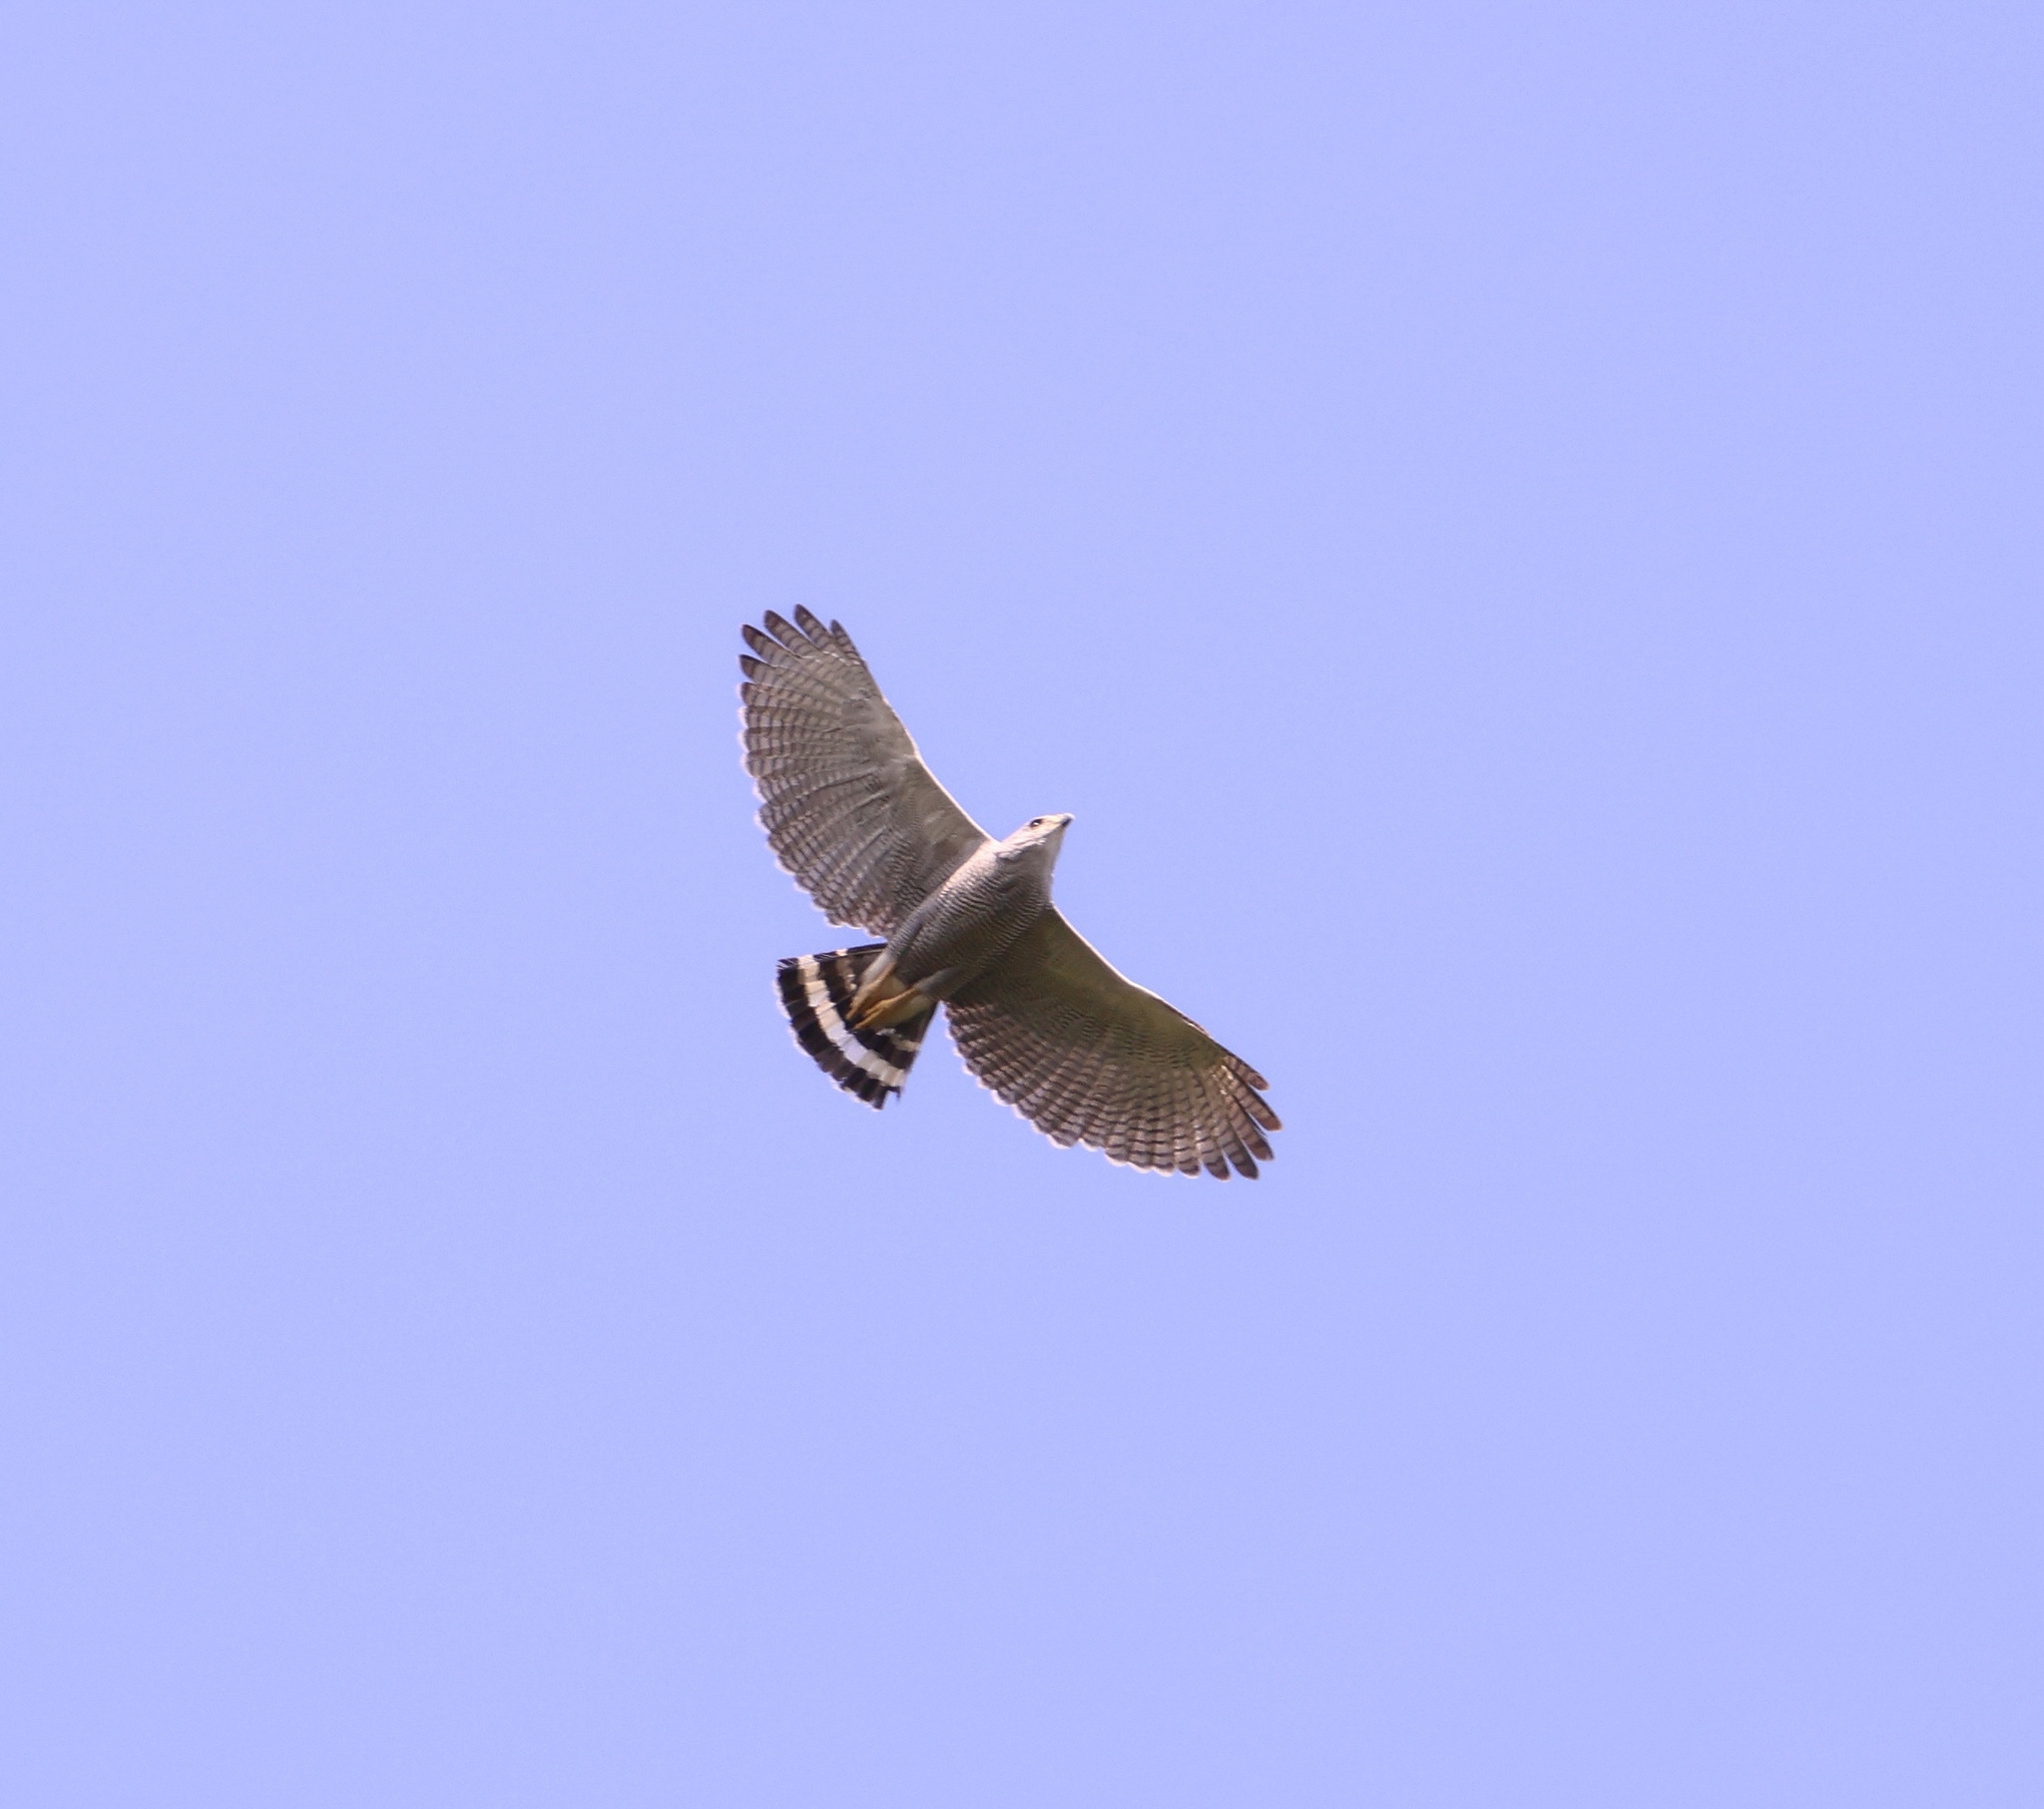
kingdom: Animalia
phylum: Chordata
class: Aves
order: Accipitriformes
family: Accipitridae
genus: Buteo
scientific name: Buteo nitidus
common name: Grey-lined hawk
